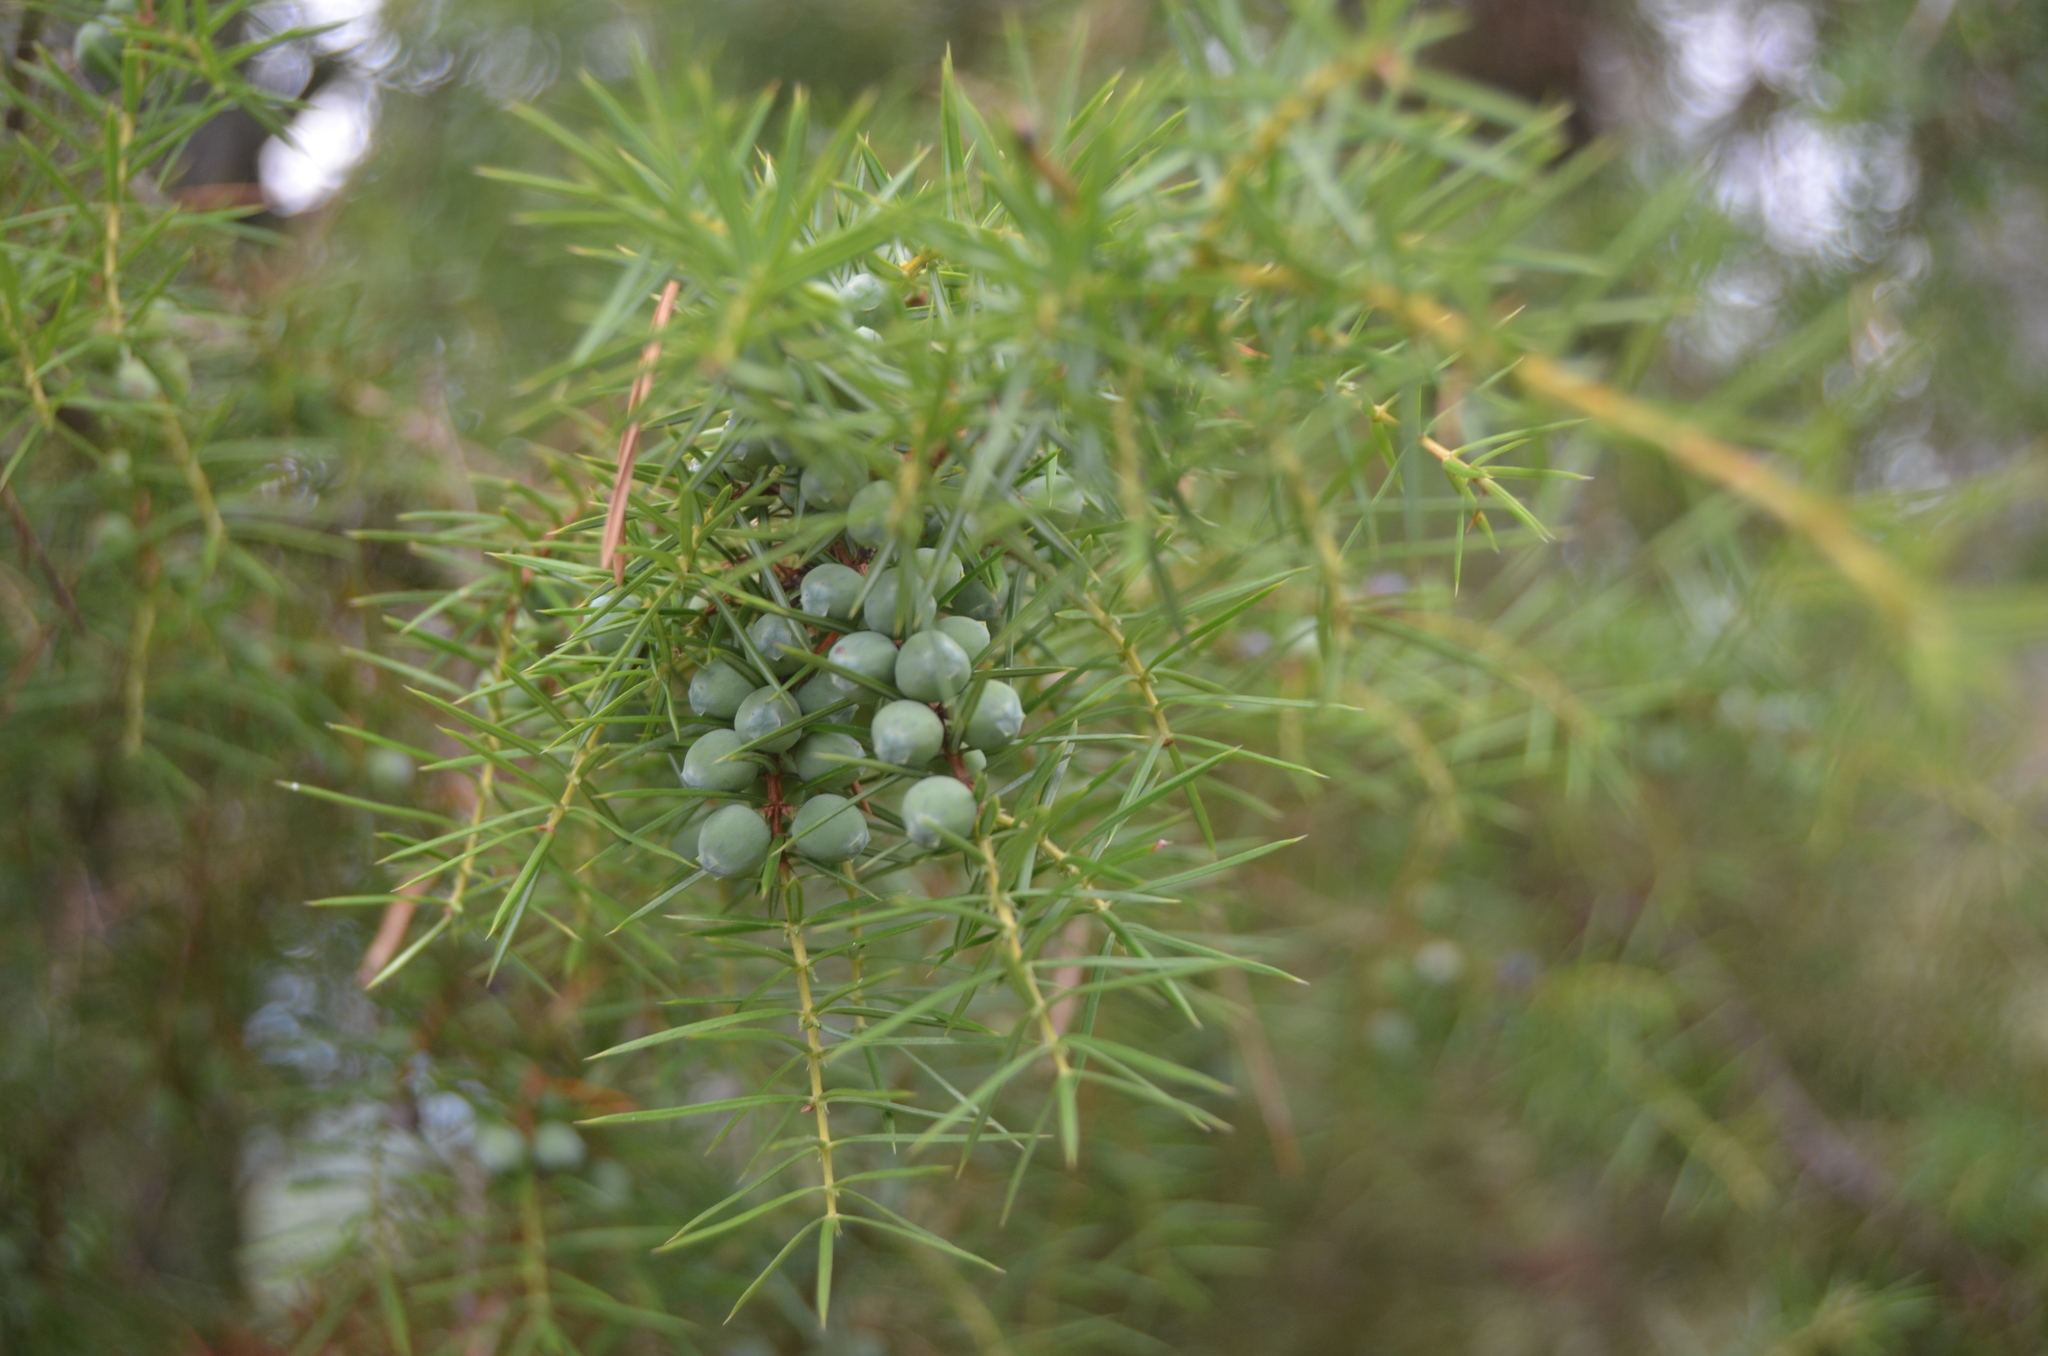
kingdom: Plantae
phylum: Tracheophyta
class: Pinopsida
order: Pinales
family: Cupressaceae
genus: Juniperus
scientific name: Juniperus communis
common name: Common juniper
